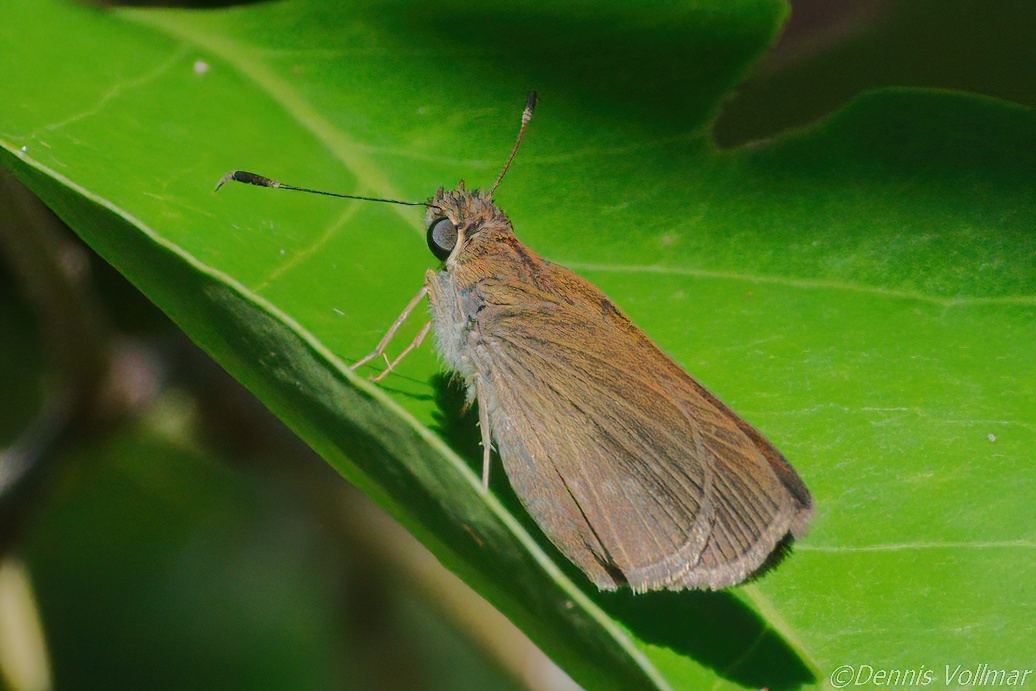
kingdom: Animalia
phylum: Arthropoda
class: Insecta
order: Lepidoptera
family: Hesperiidae
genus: Cymaenes
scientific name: Cymaenes tripunctus
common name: Dingy dotted skipper
